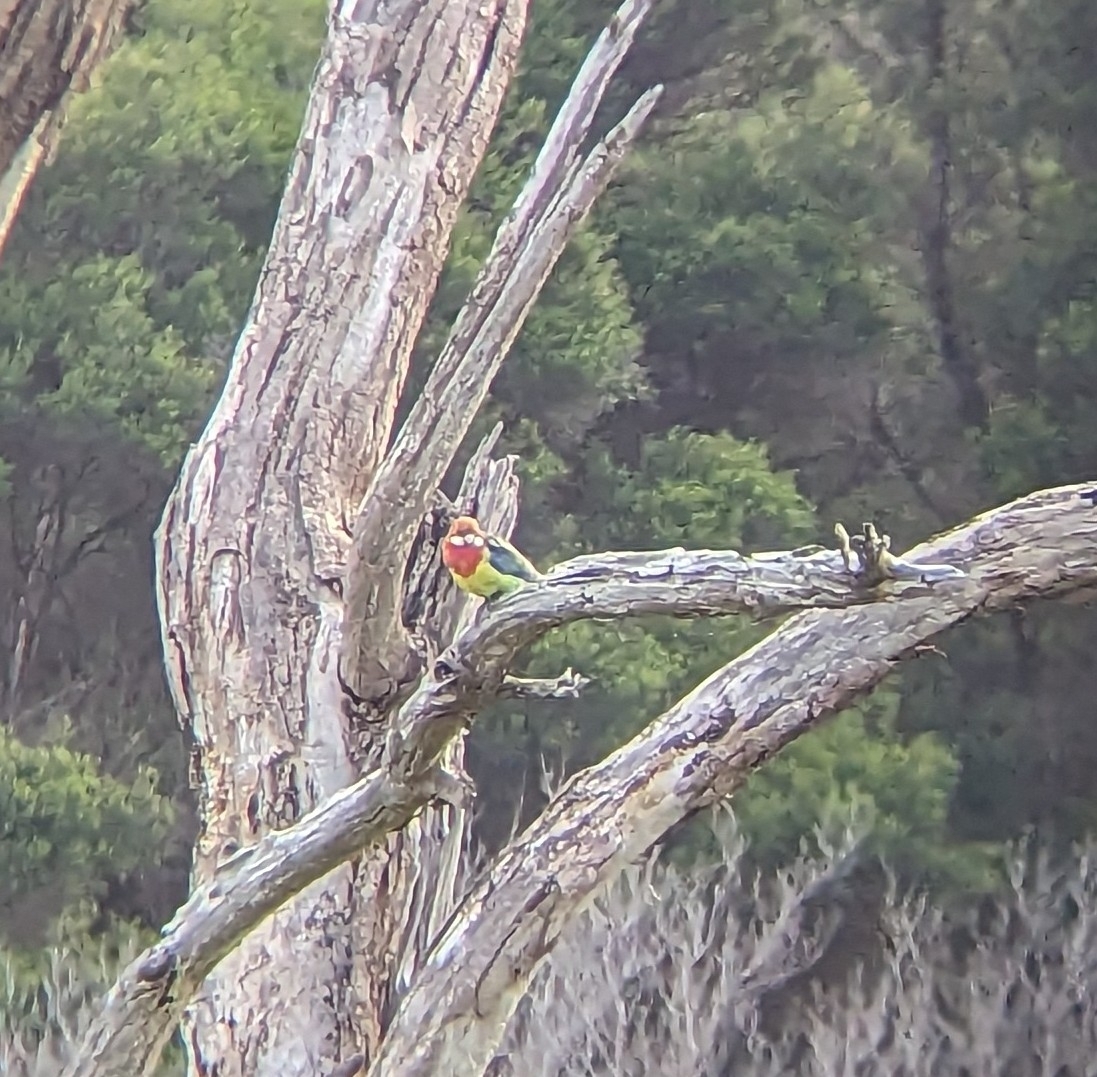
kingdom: Animalia
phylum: Chordata
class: Aves
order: Psittaciformes
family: Psittacidae
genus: Platycercus
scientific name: Platycercus eximius
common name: Eastern rosella
